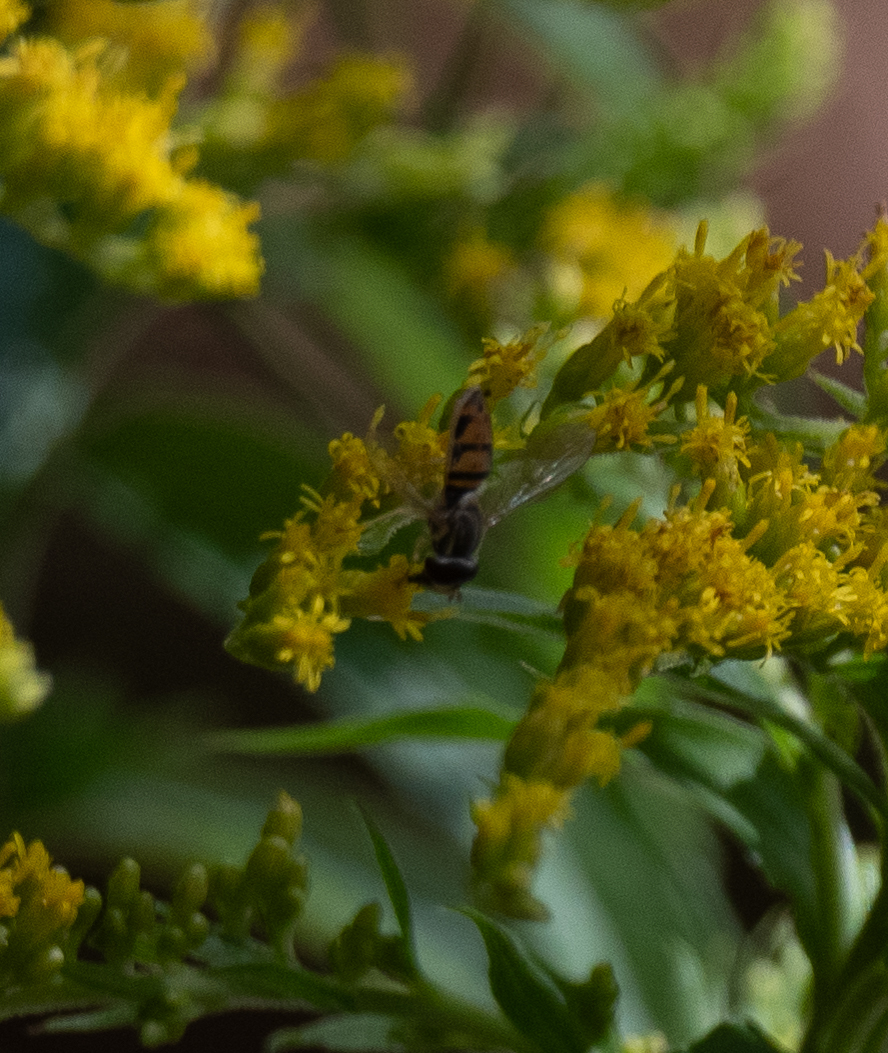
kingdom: Animalia
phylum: Arthropoda
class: Insecta
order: Diptera
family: Syrphidae
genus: Toxomerus
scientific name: Toxomerus marginatus
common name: Syrphid fly
